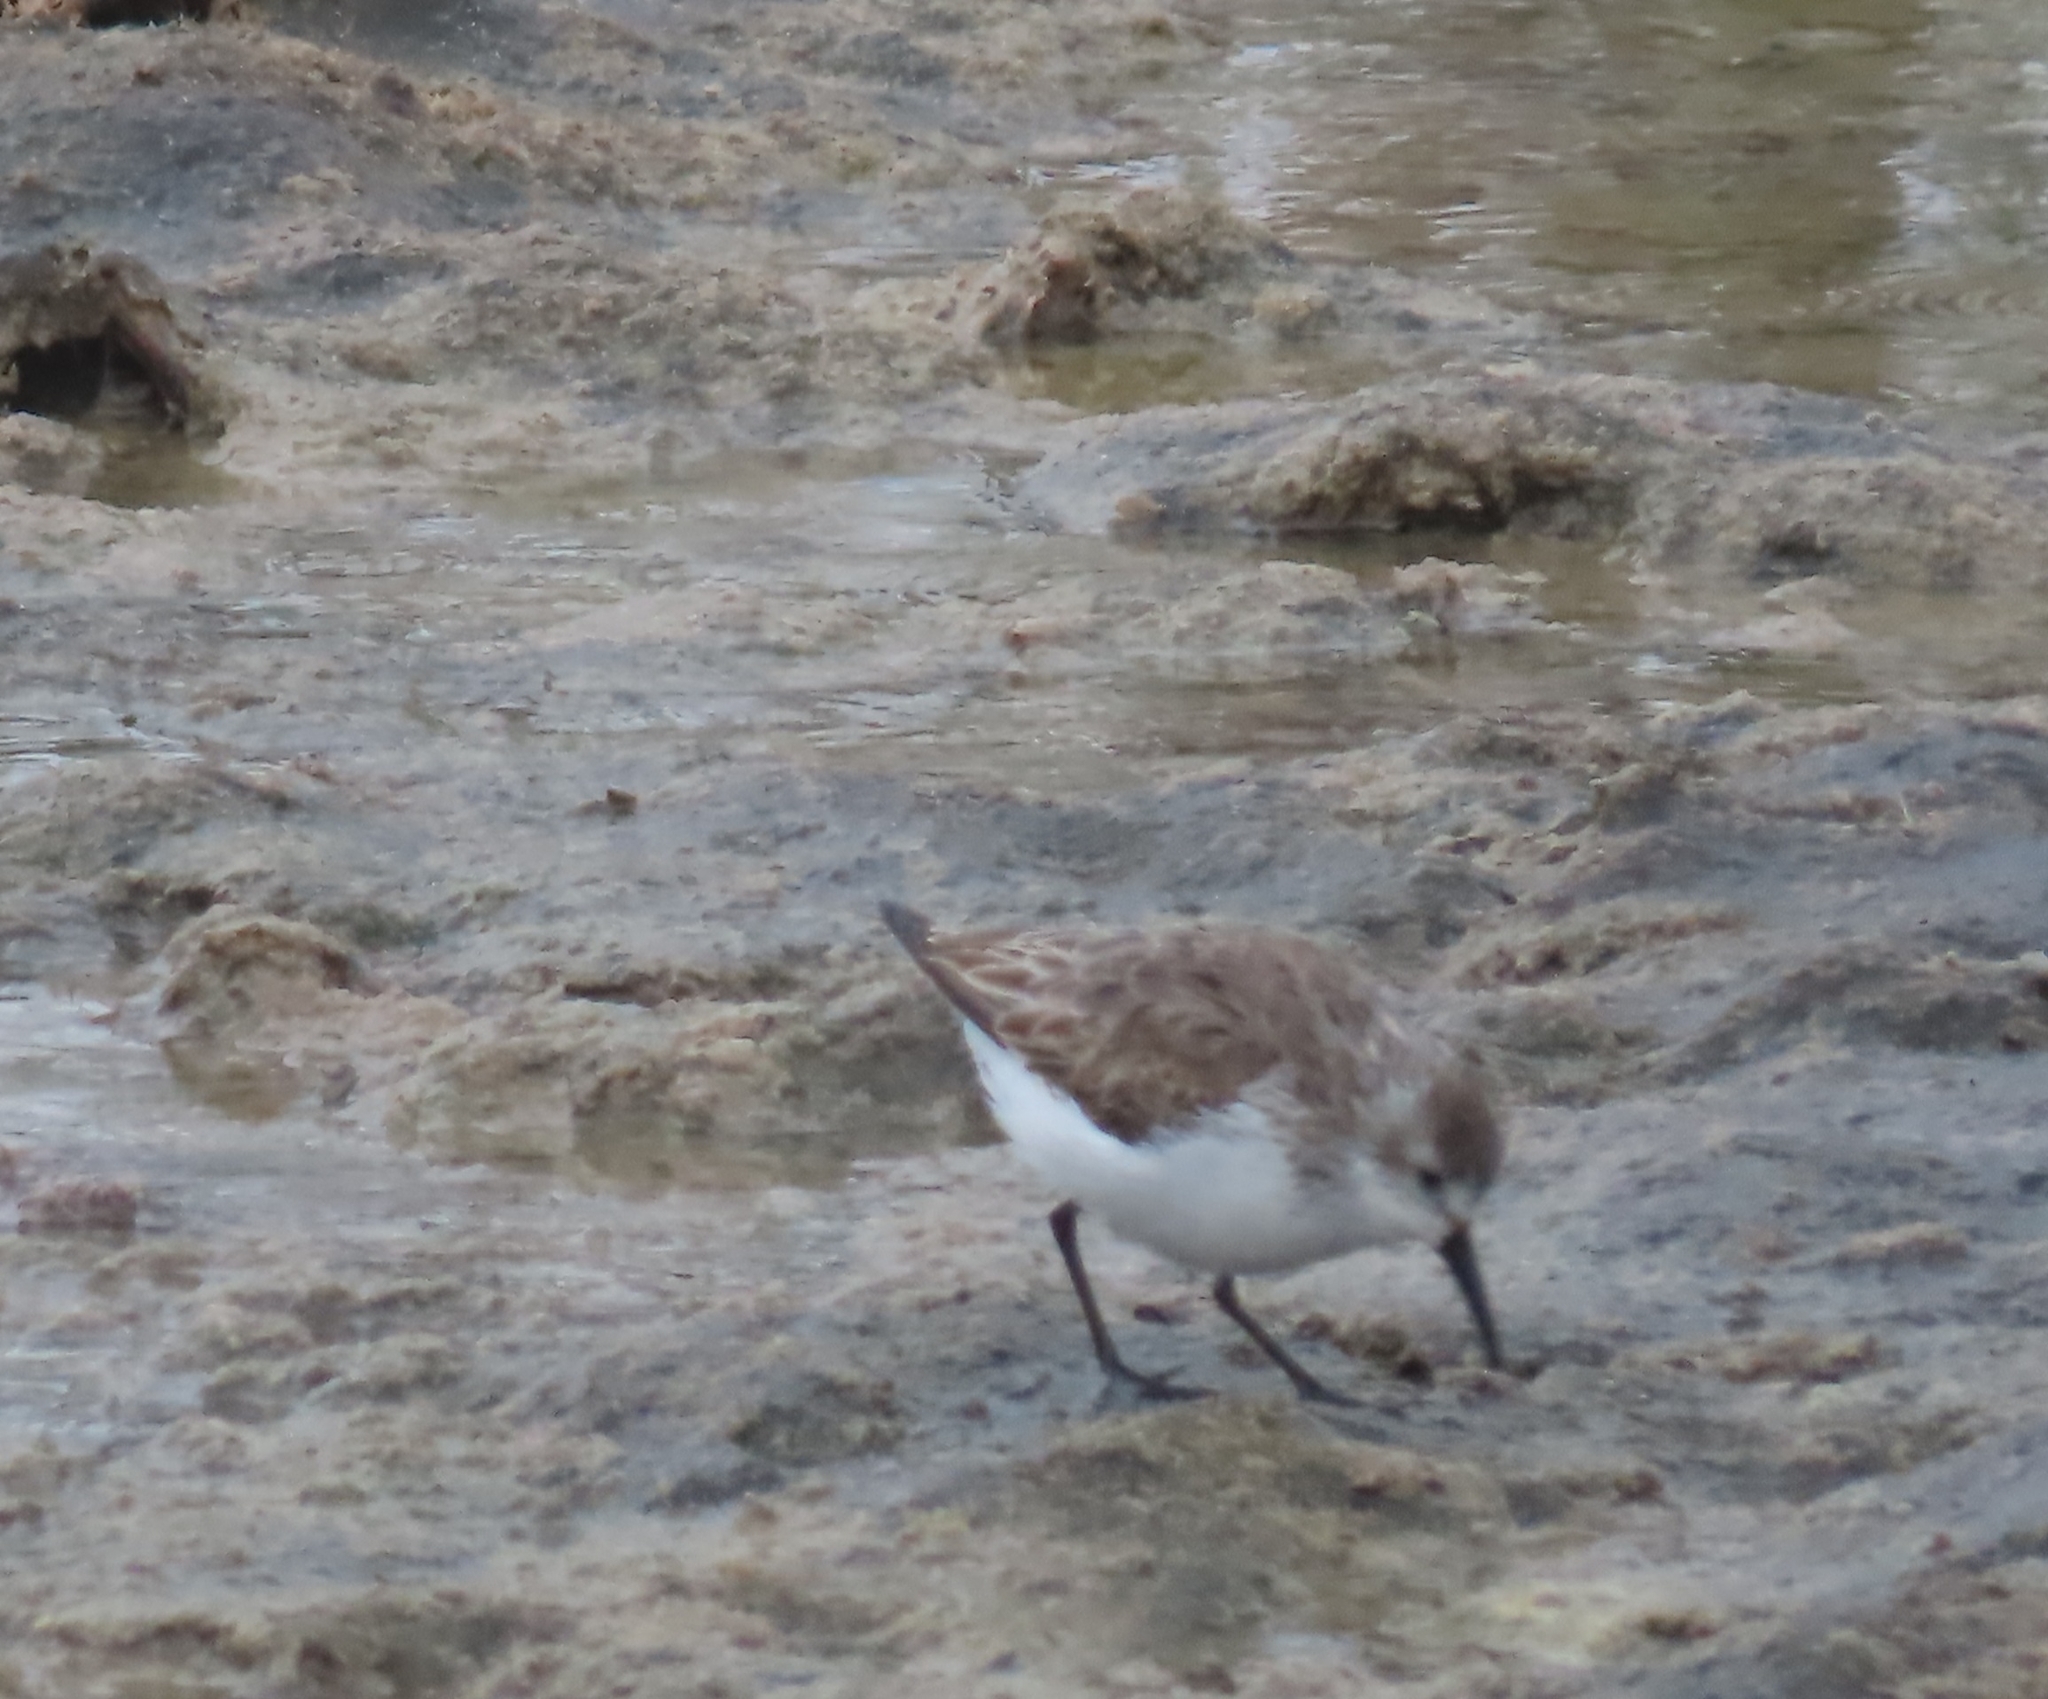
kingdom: Animalia
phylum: Chordata
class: Aves
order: Charadriiformes
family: Scolopacidae
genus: Calidris
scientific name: Calidris mauri
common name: Western sandpiper
